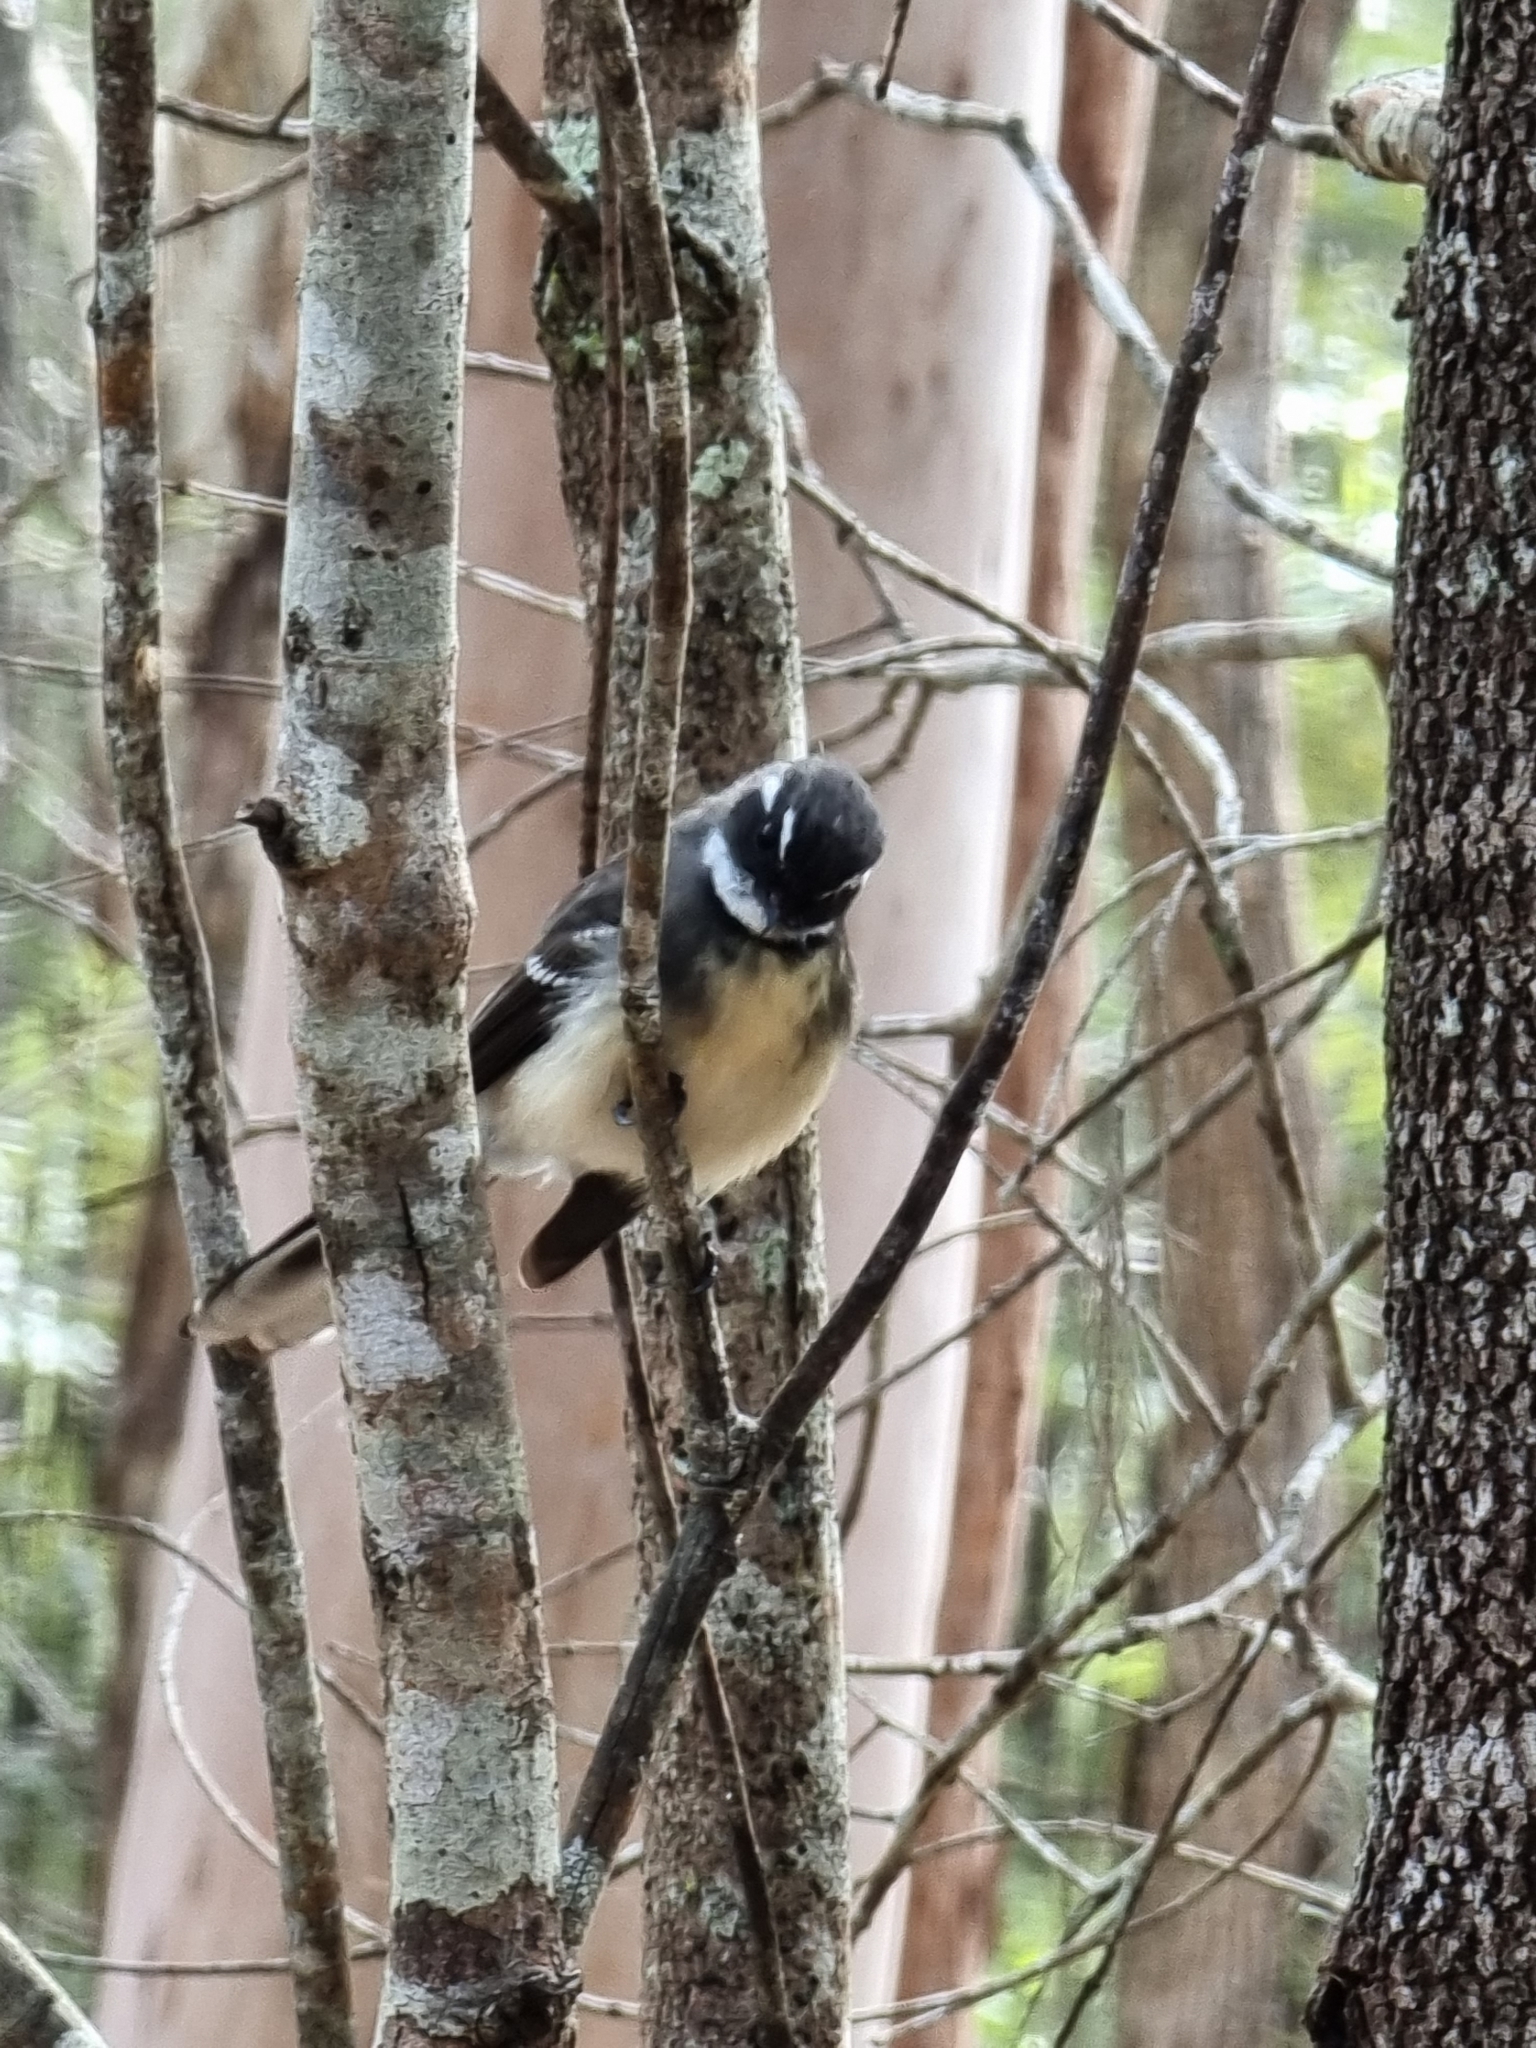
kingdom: Animalia
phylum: Chordata
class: Aves
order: Passeriformes
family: Rhipiduridae
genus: Rhipidura
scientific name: Rhipidura albiscapa
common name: Grey fantail
